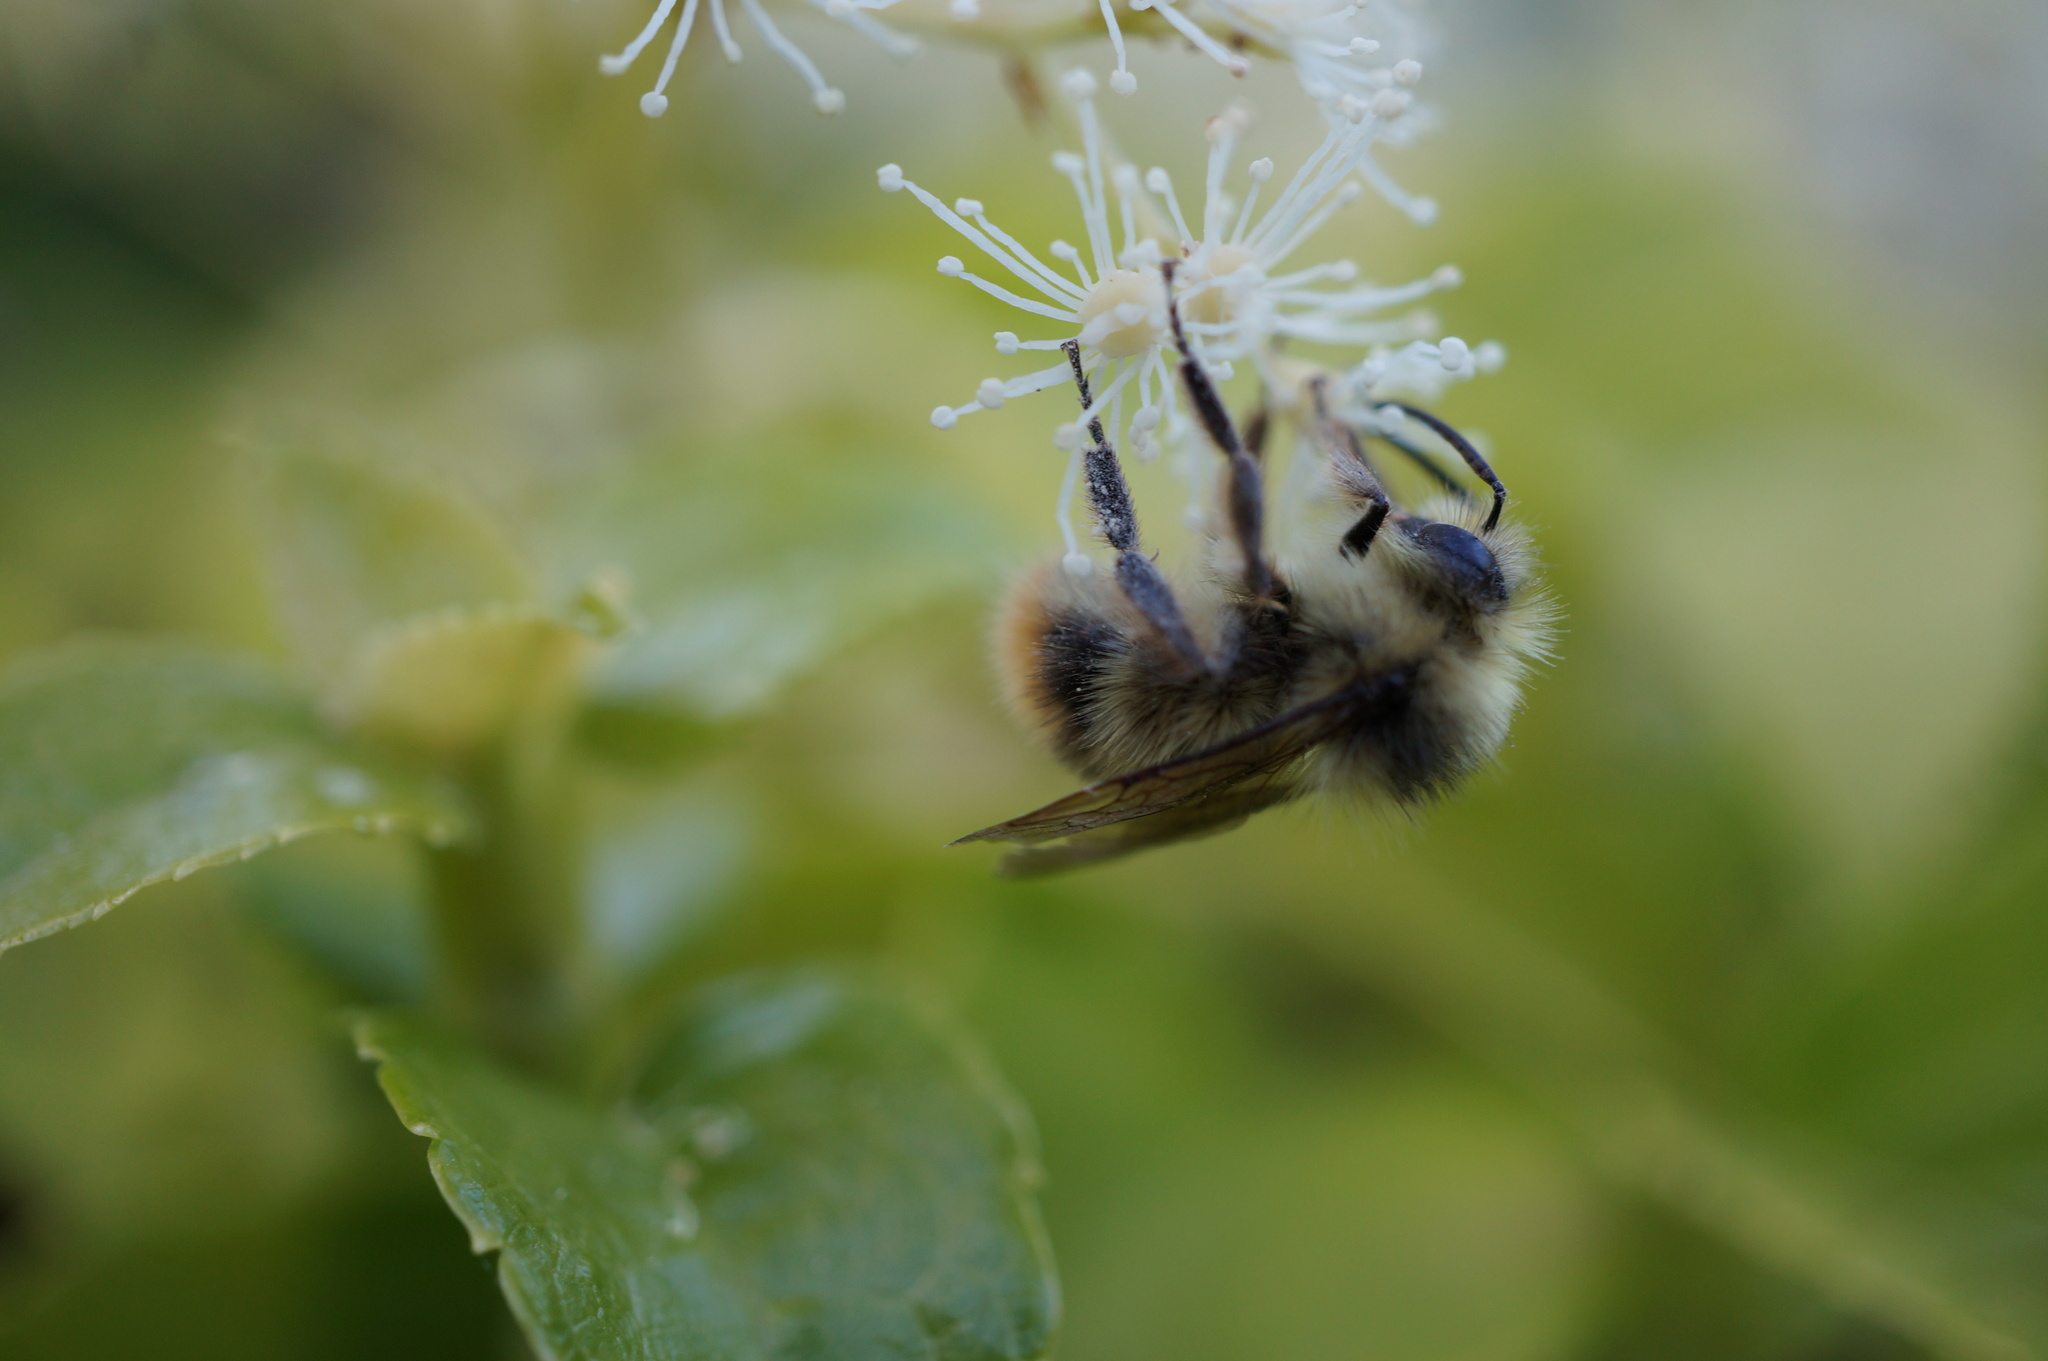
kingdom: Animalia
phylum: Arthropoda
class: Insecta
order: Hymenoptera
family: Apidae
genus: Bombus
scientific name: Bombus mixtus
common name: Fuzzy-horned bumble bee
